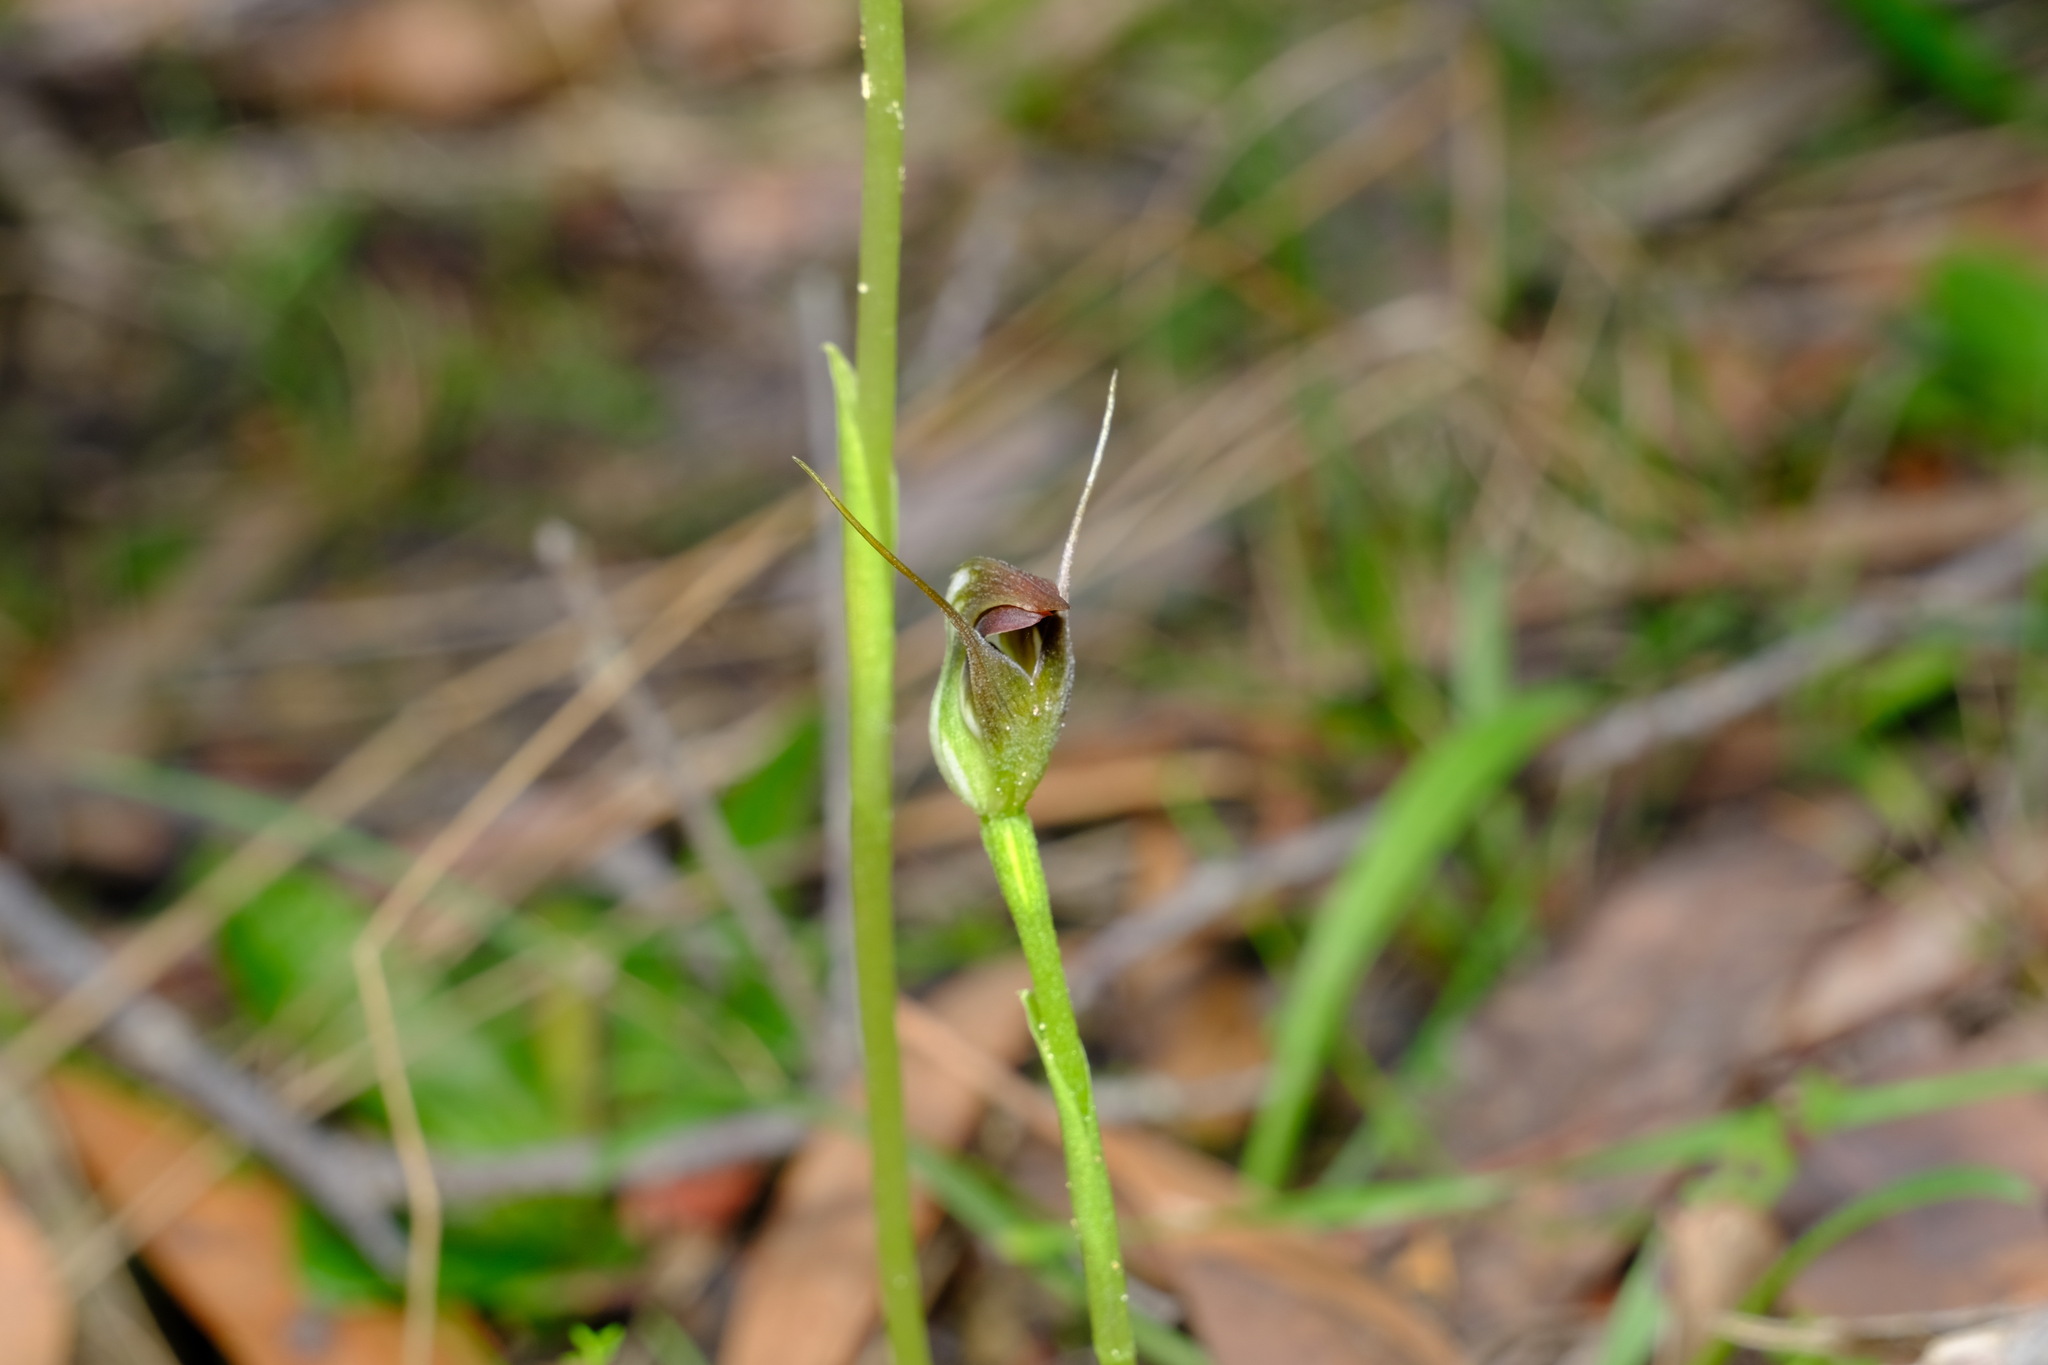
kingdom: Plantae
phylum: Tracheophyta
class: Liliopsida
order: Asparagales
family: Orchidaceae
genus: Pterostylis
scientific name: Pterostylis pedunculata
